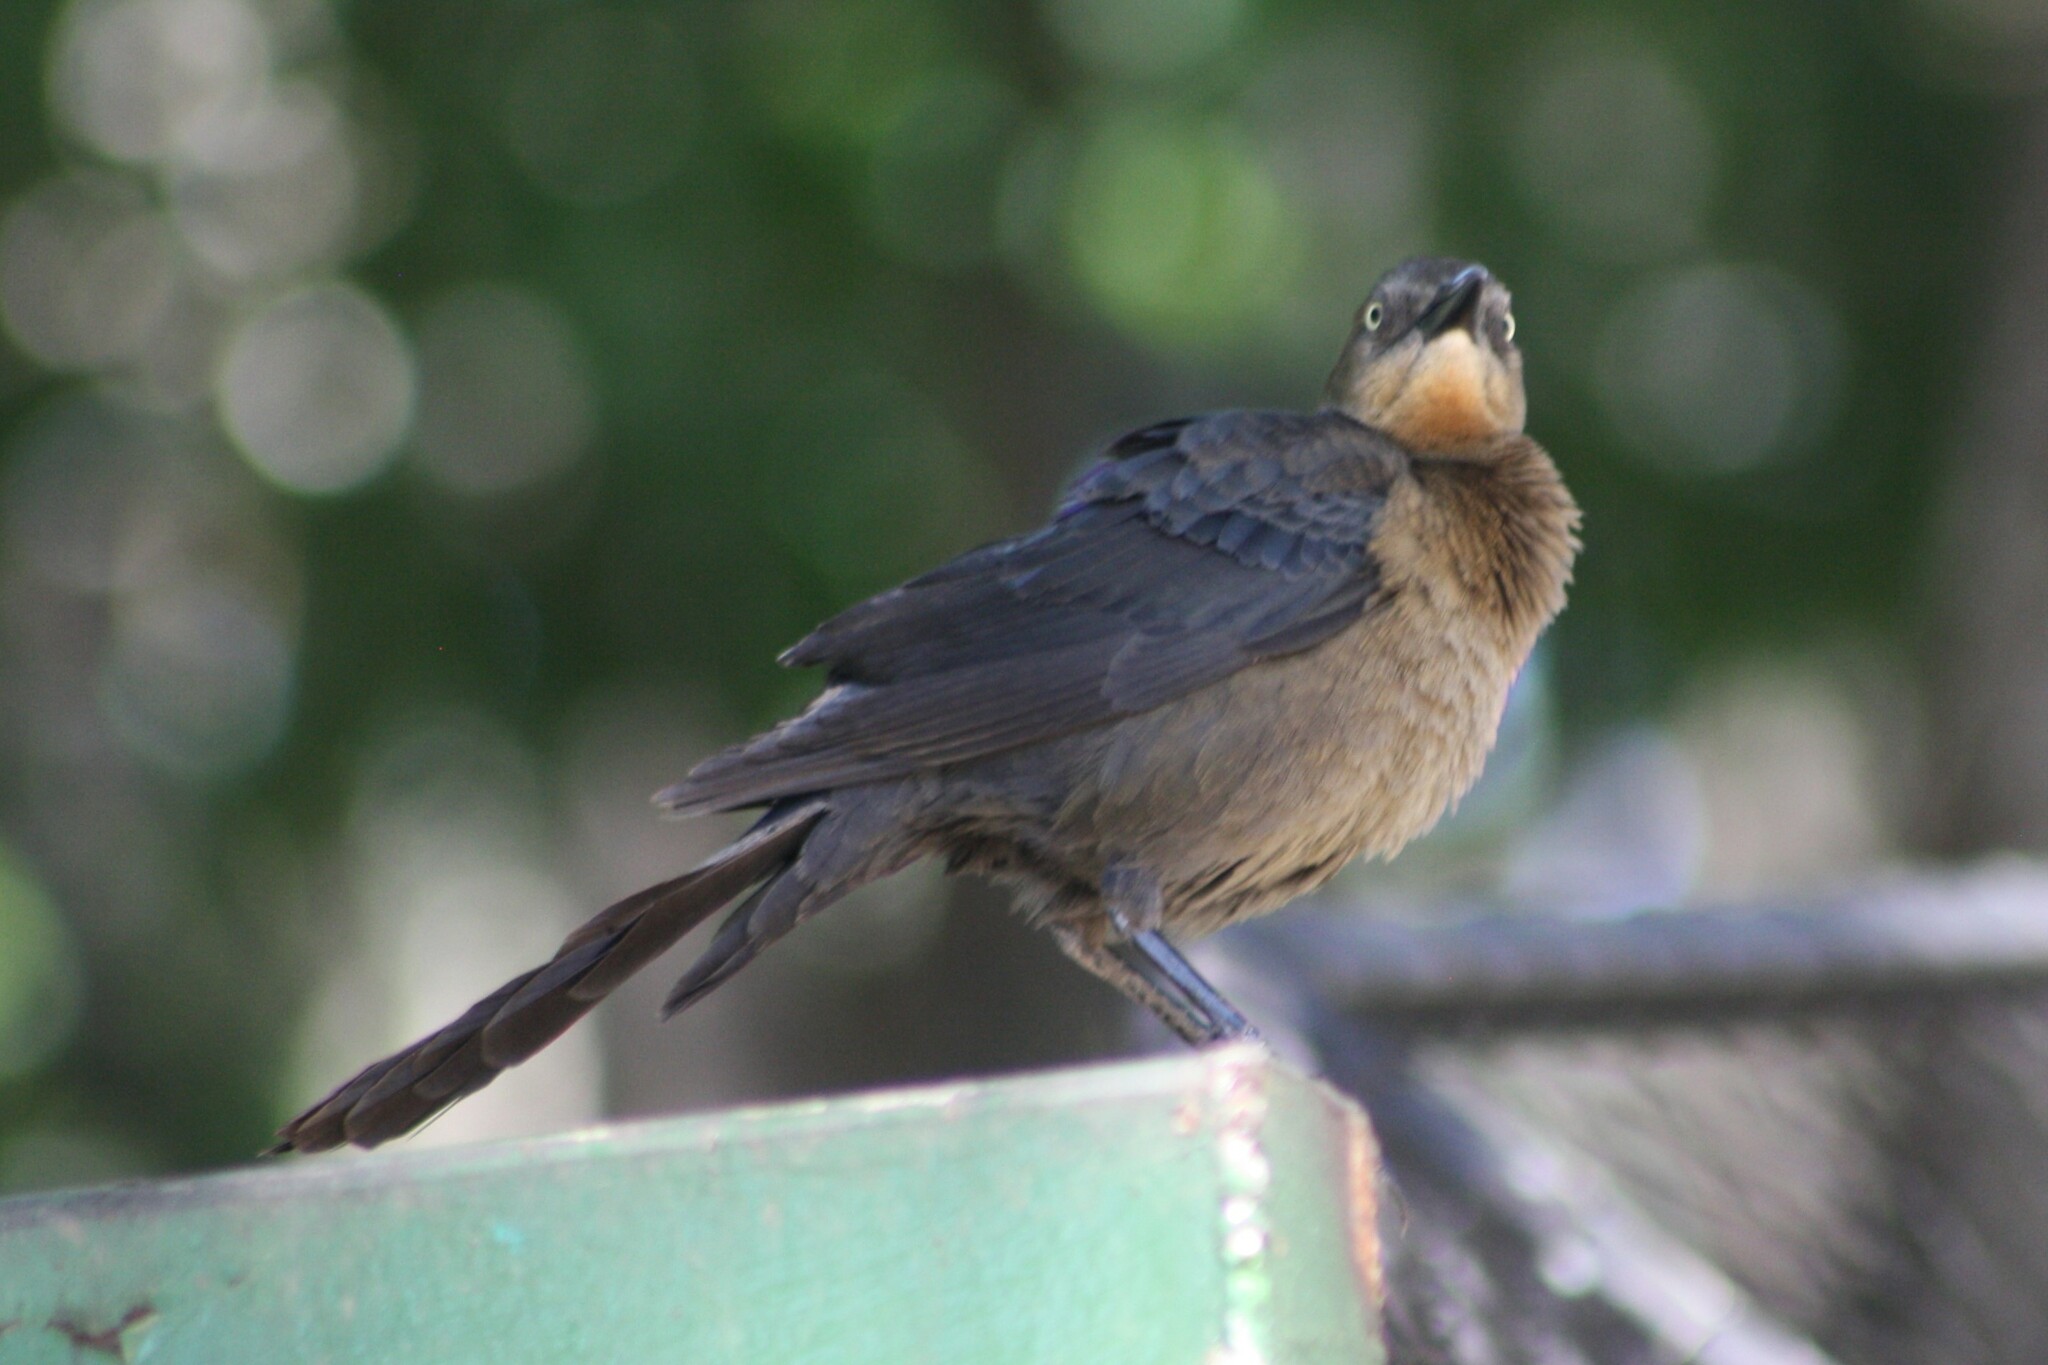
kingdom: Animalia
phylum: Chordata
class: Aves
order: Passeriformes
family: Icteridae
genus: Quiscalus
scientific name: Quiscalus mexicanus
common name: Great-tailed grackle
